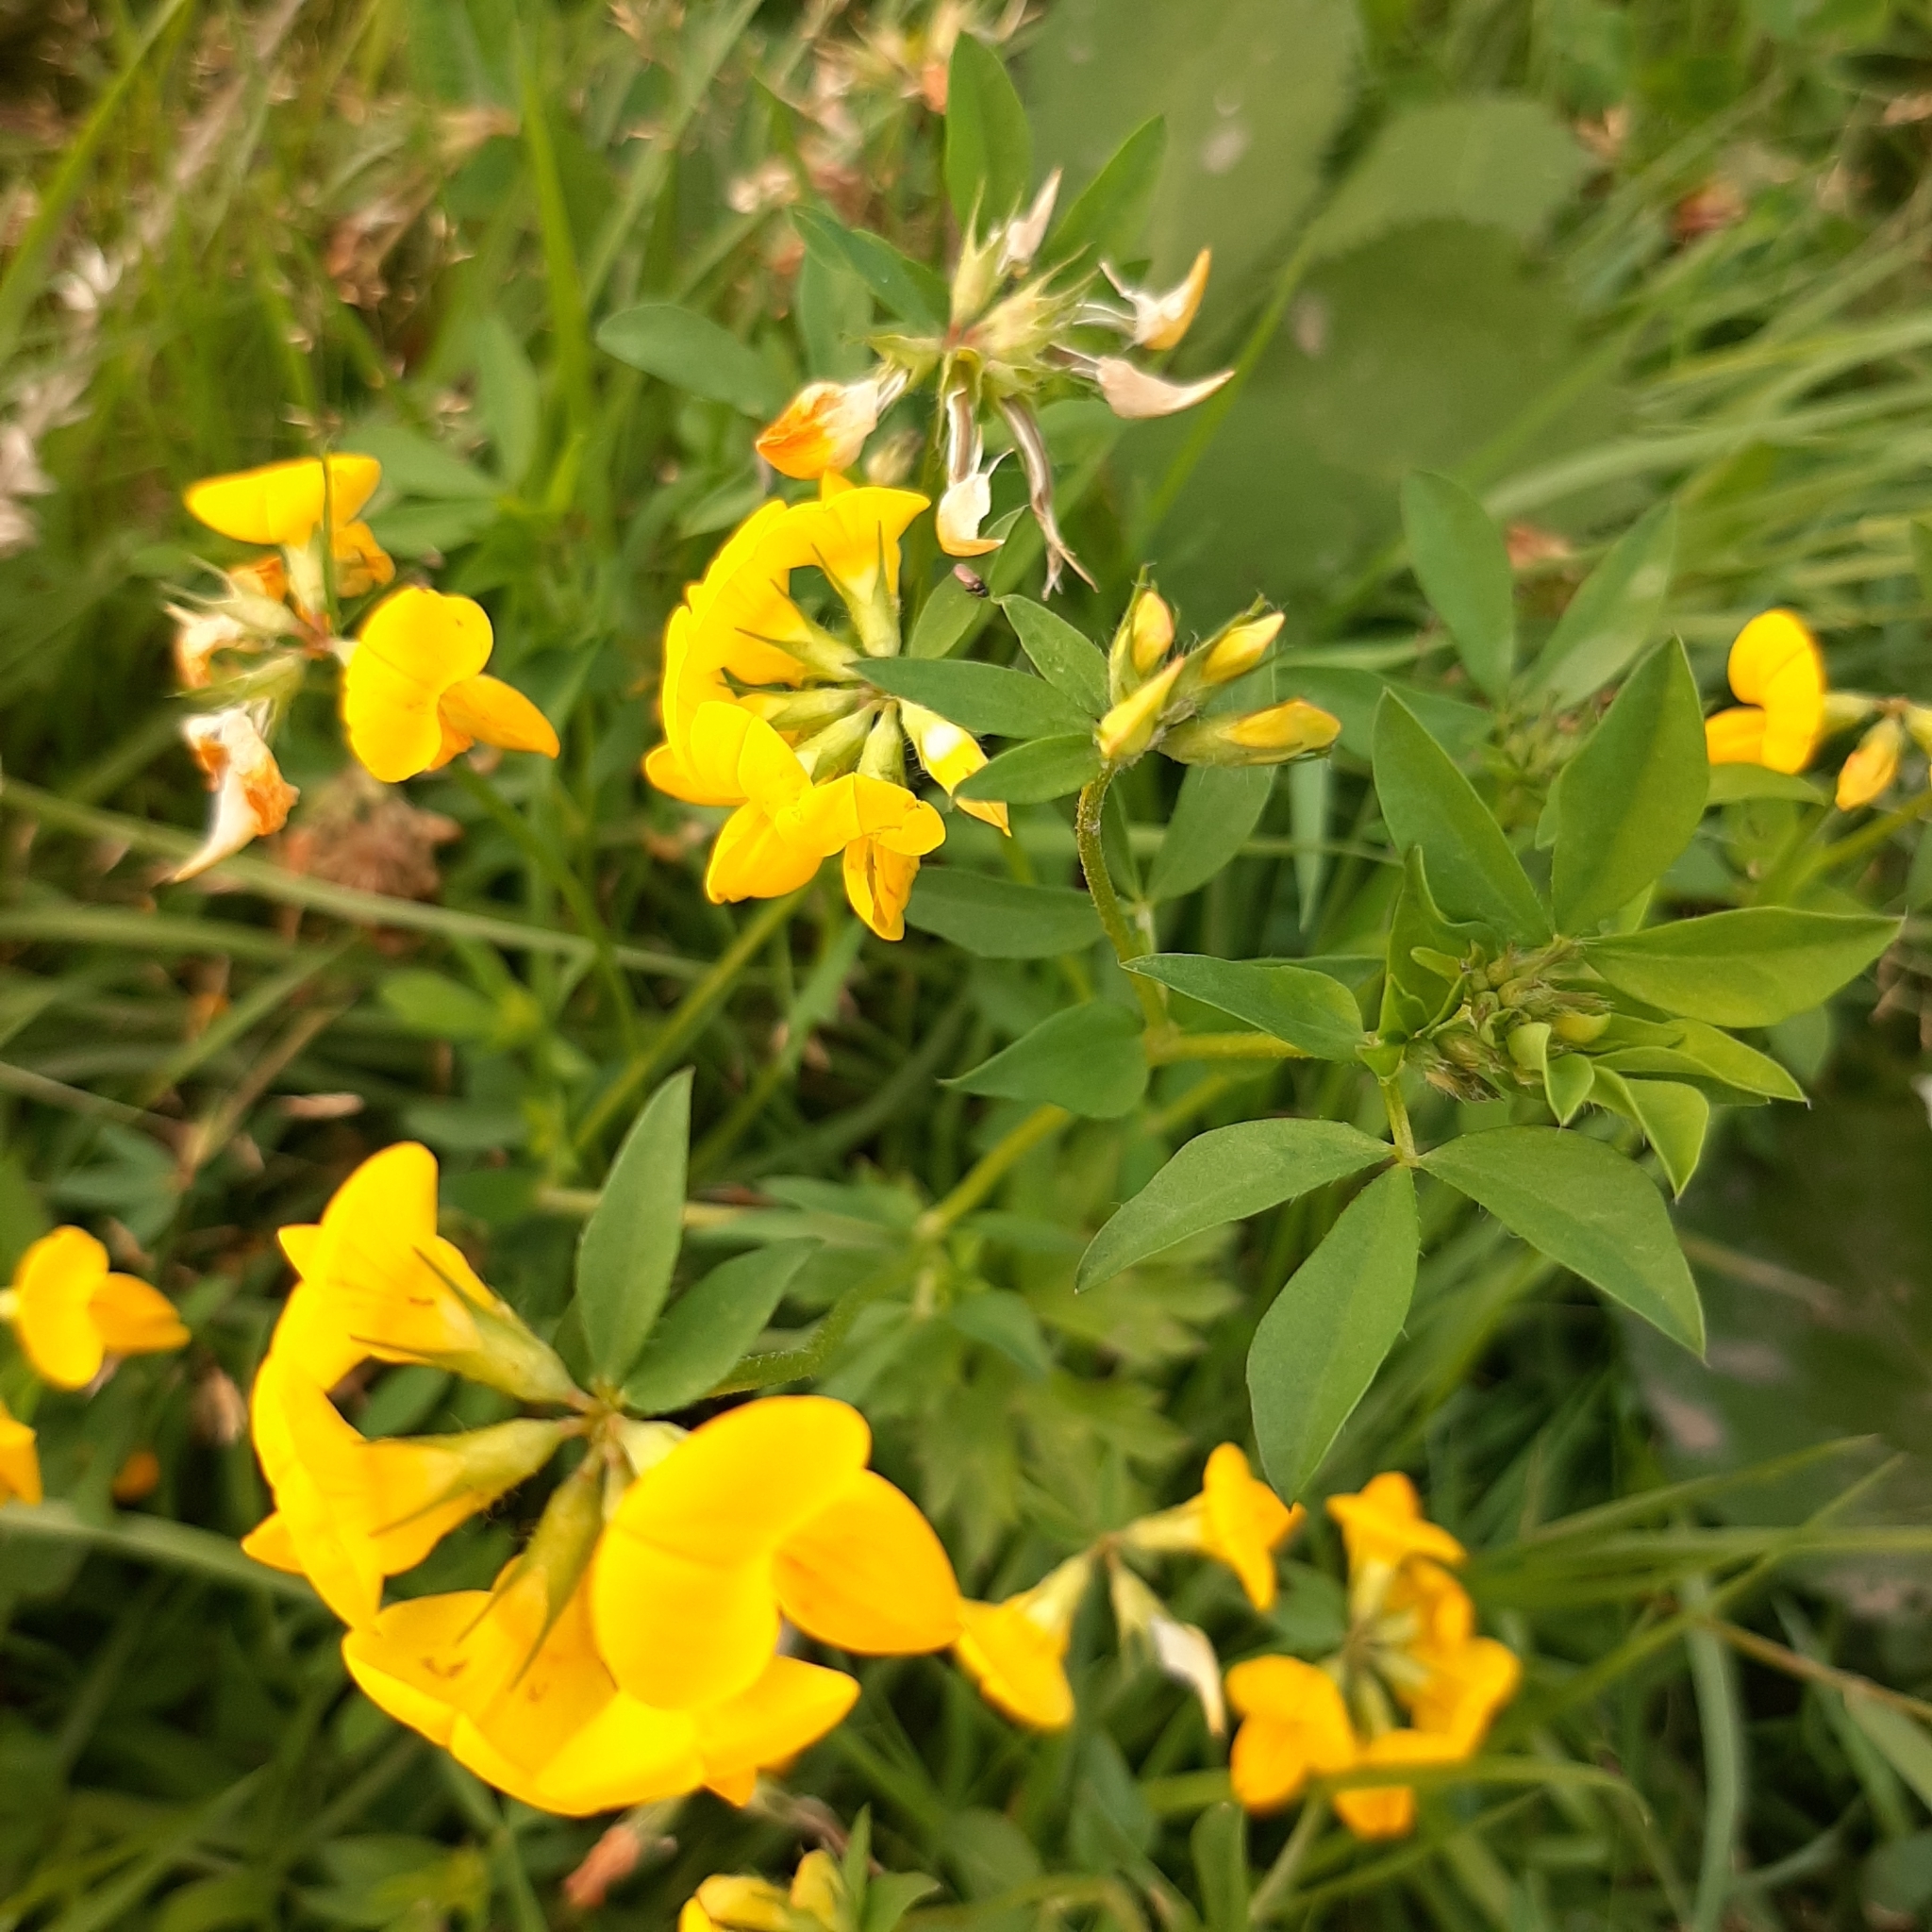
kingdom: Plantae
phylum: Tracheophyta
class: Magnoliopsida
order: Fabales
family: Fabaceae
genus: Lotus
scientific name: Lotus pedunculatus
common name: Greater birdsfoot-trefoil
